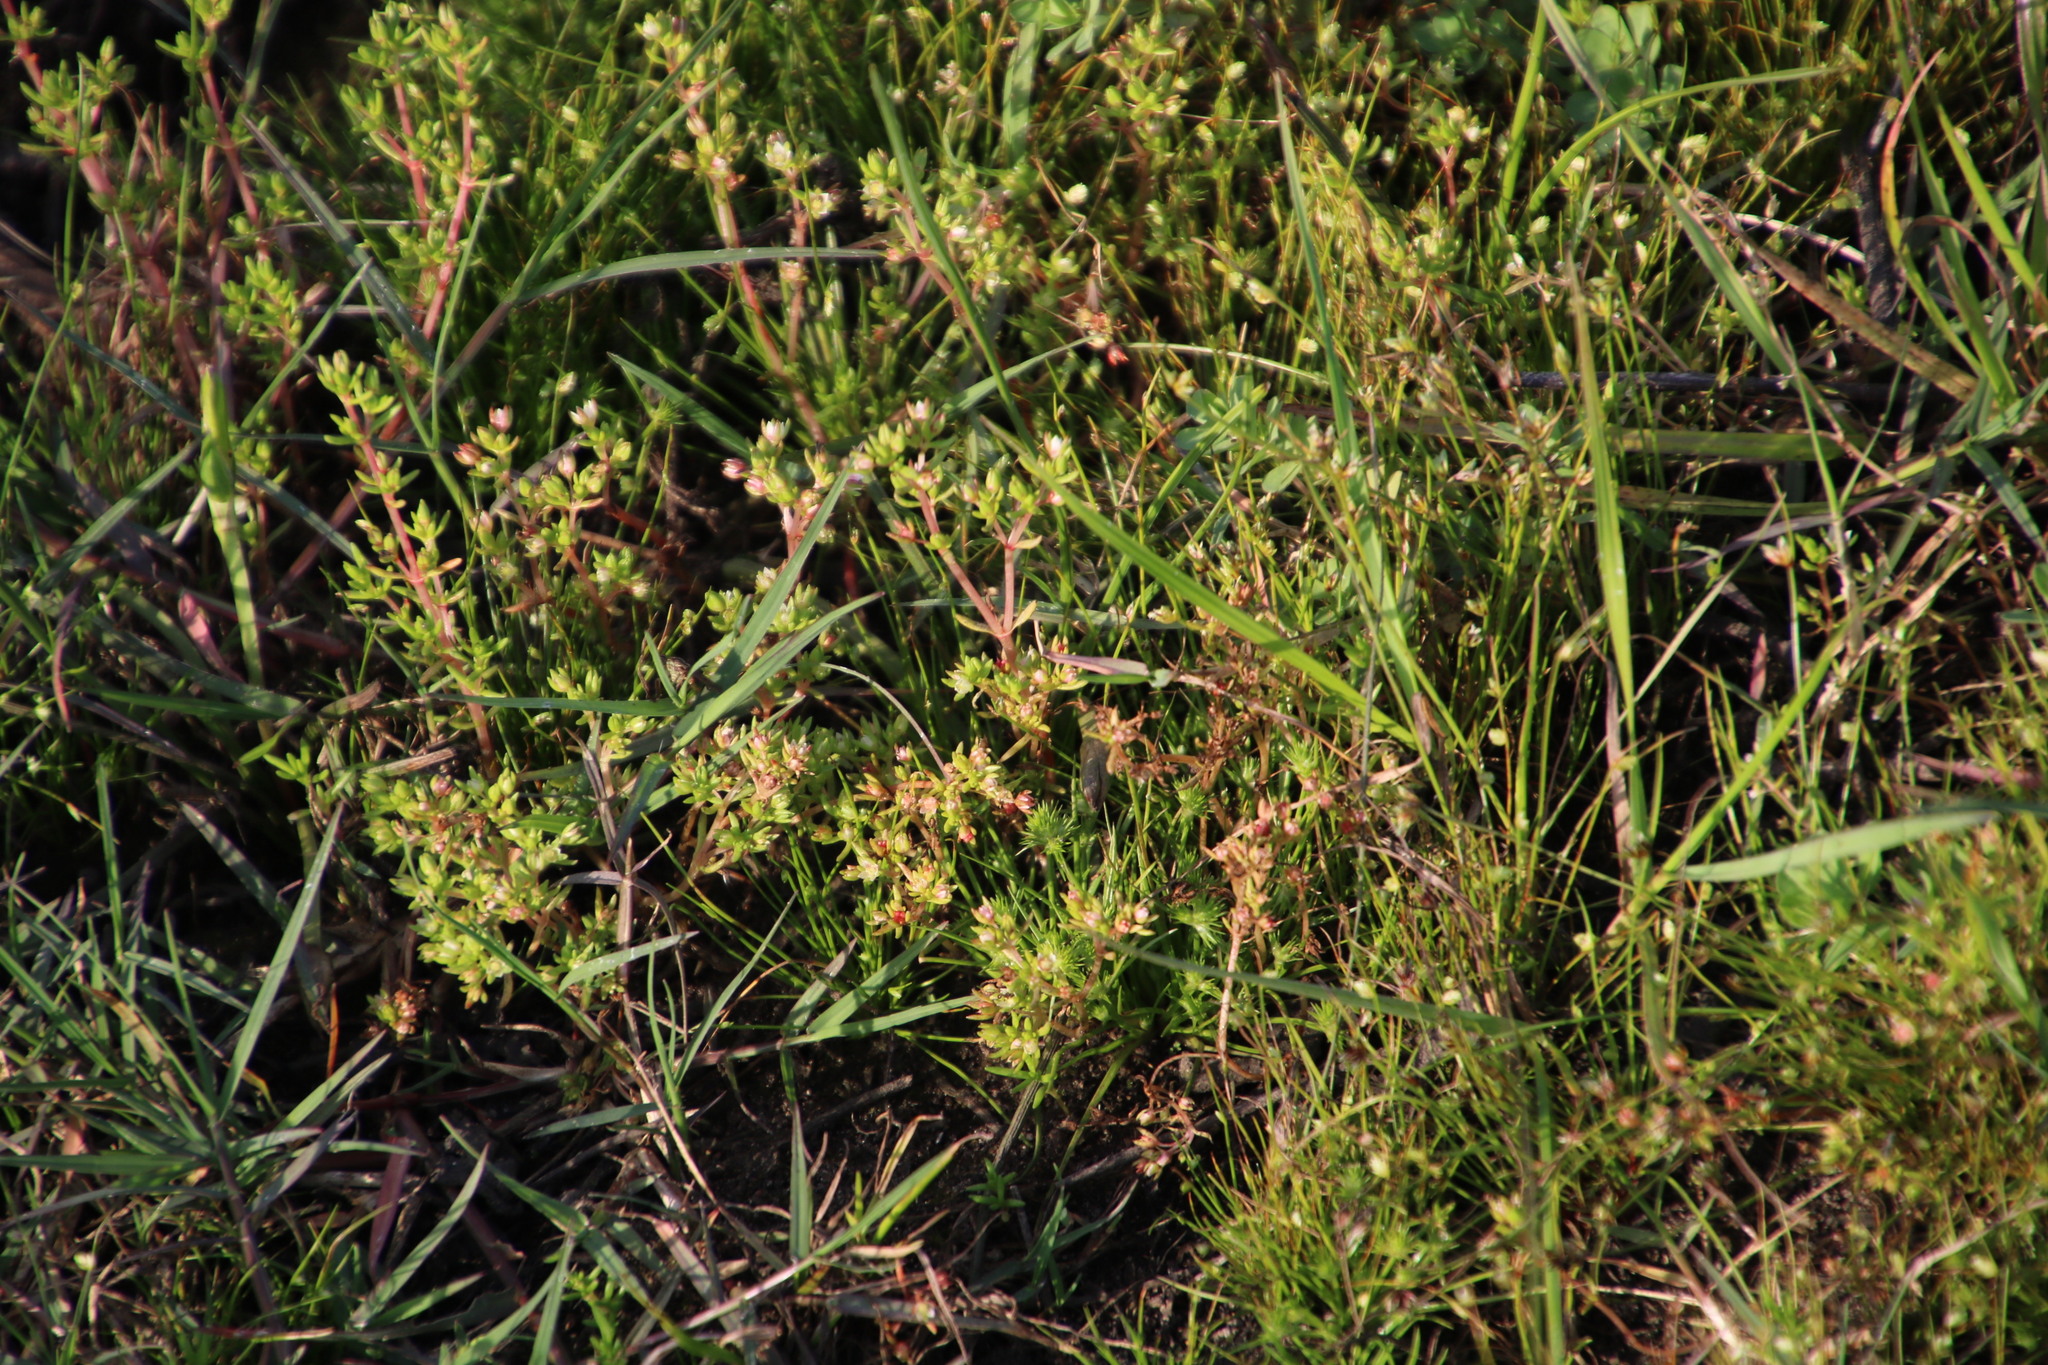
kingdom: Plantae
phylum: Tracheophyta
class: Magnoliopsida
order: Saxifragales
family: Crassulaceae
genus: Crassula
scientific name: Crassula decumbens
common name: Scilly pigmyweed
